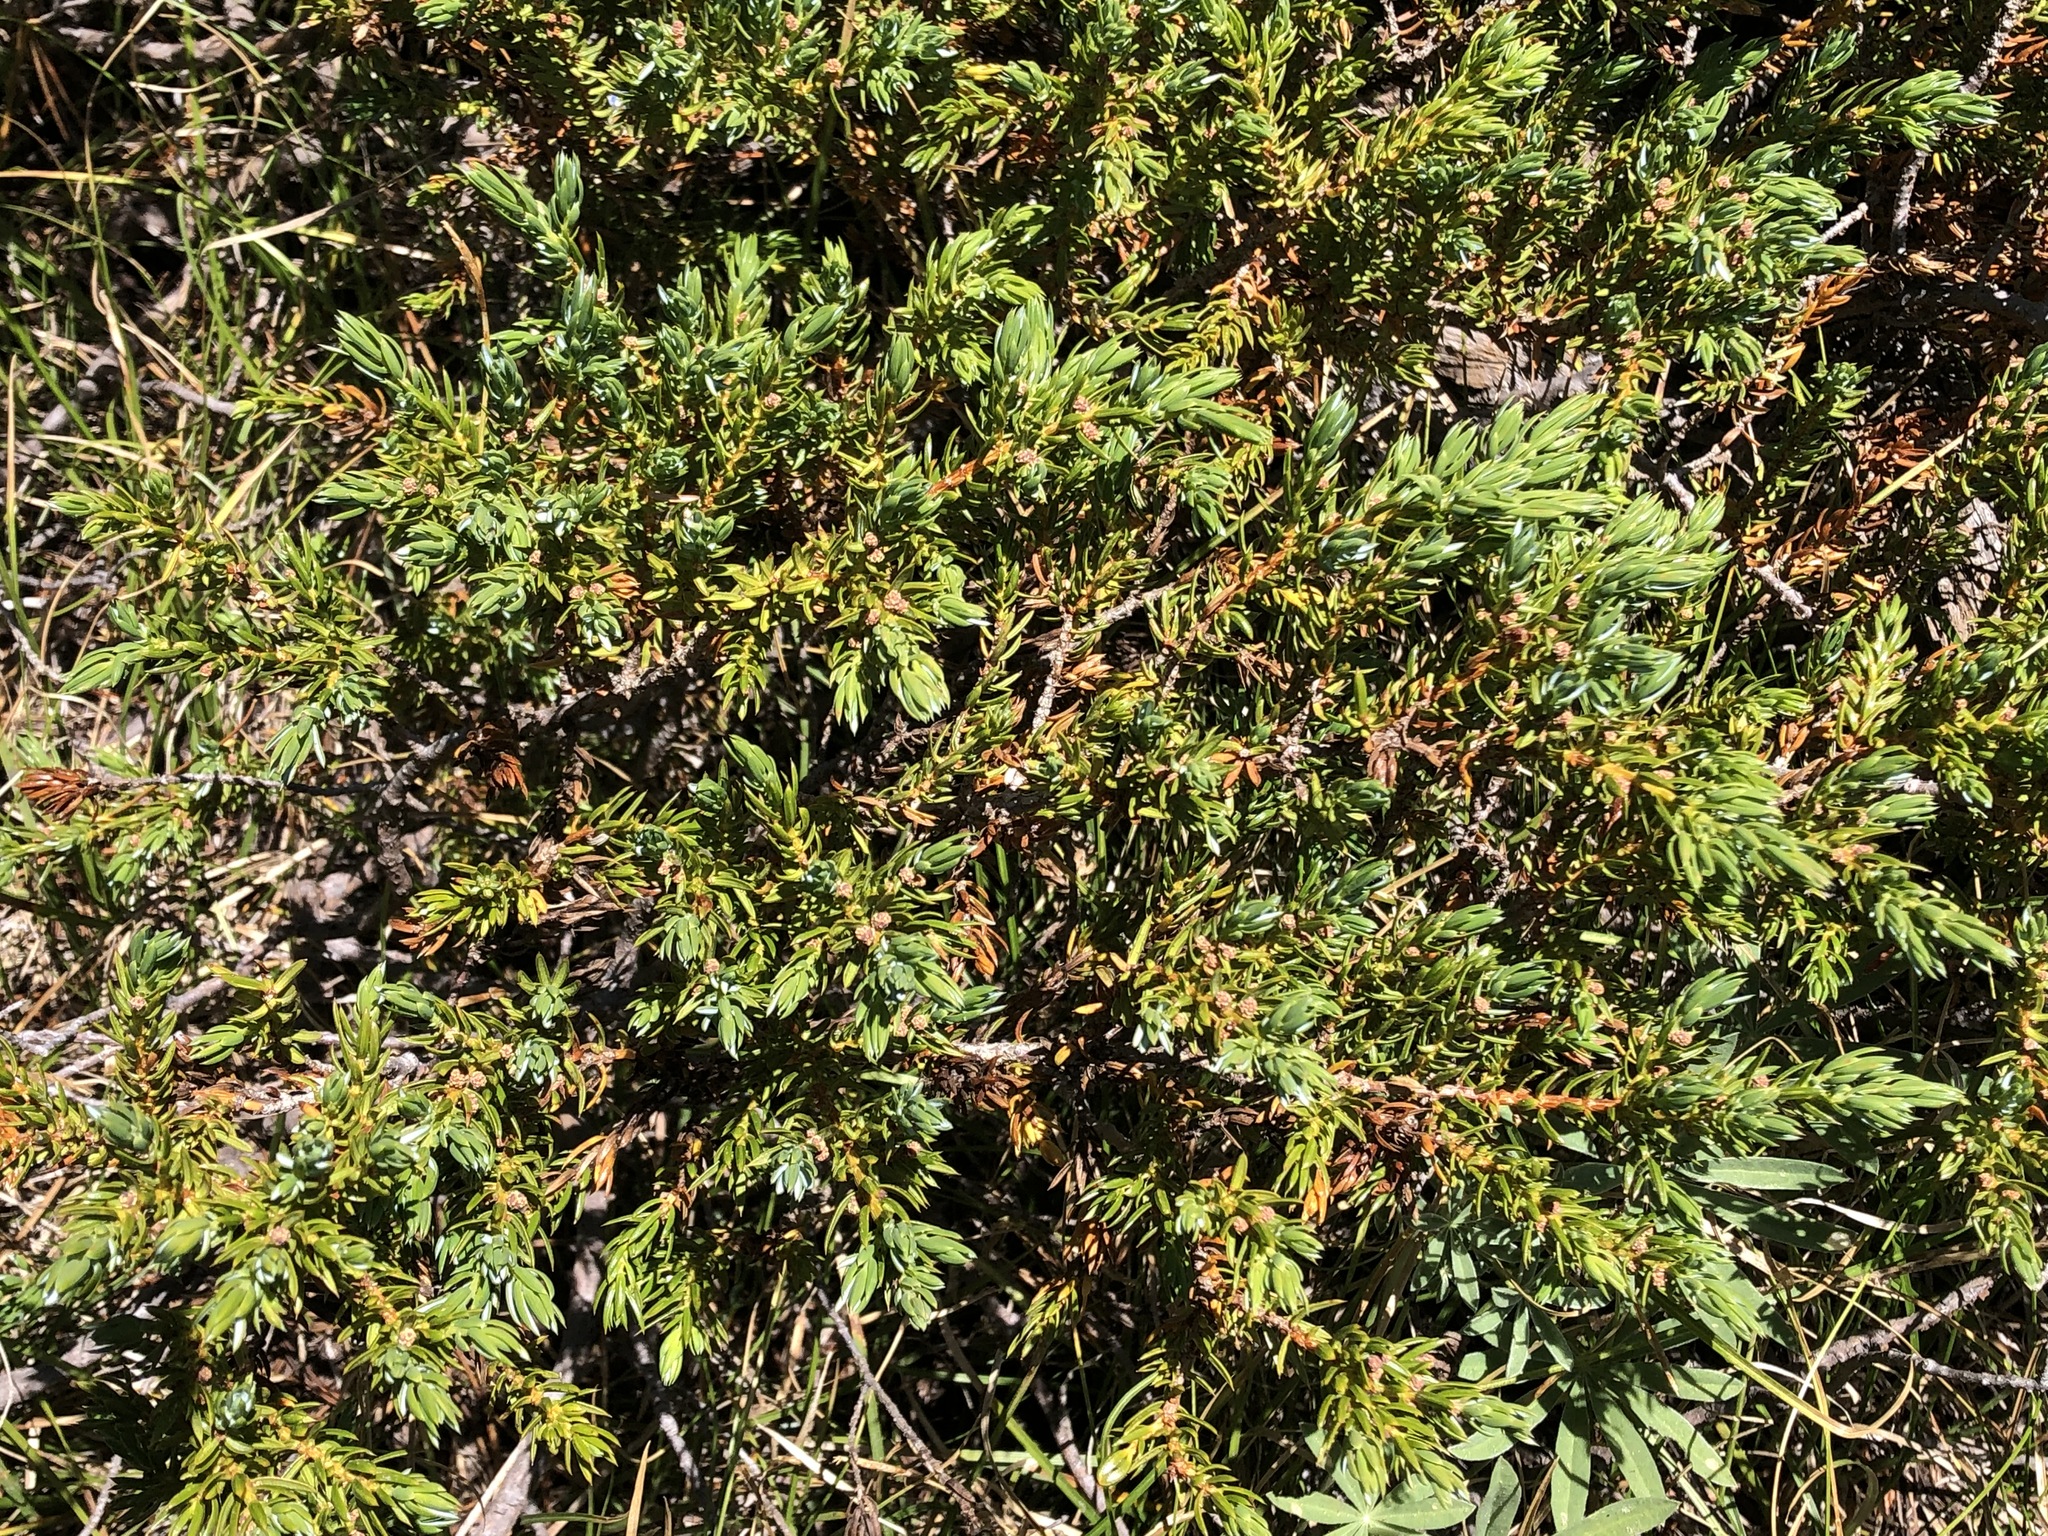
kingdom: Plantae
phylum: Tracheophyta
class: Pinopsida
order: Pinales
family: Cupressaceae
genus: Juniperus
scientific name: Juniperus communis
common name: Common juniper
